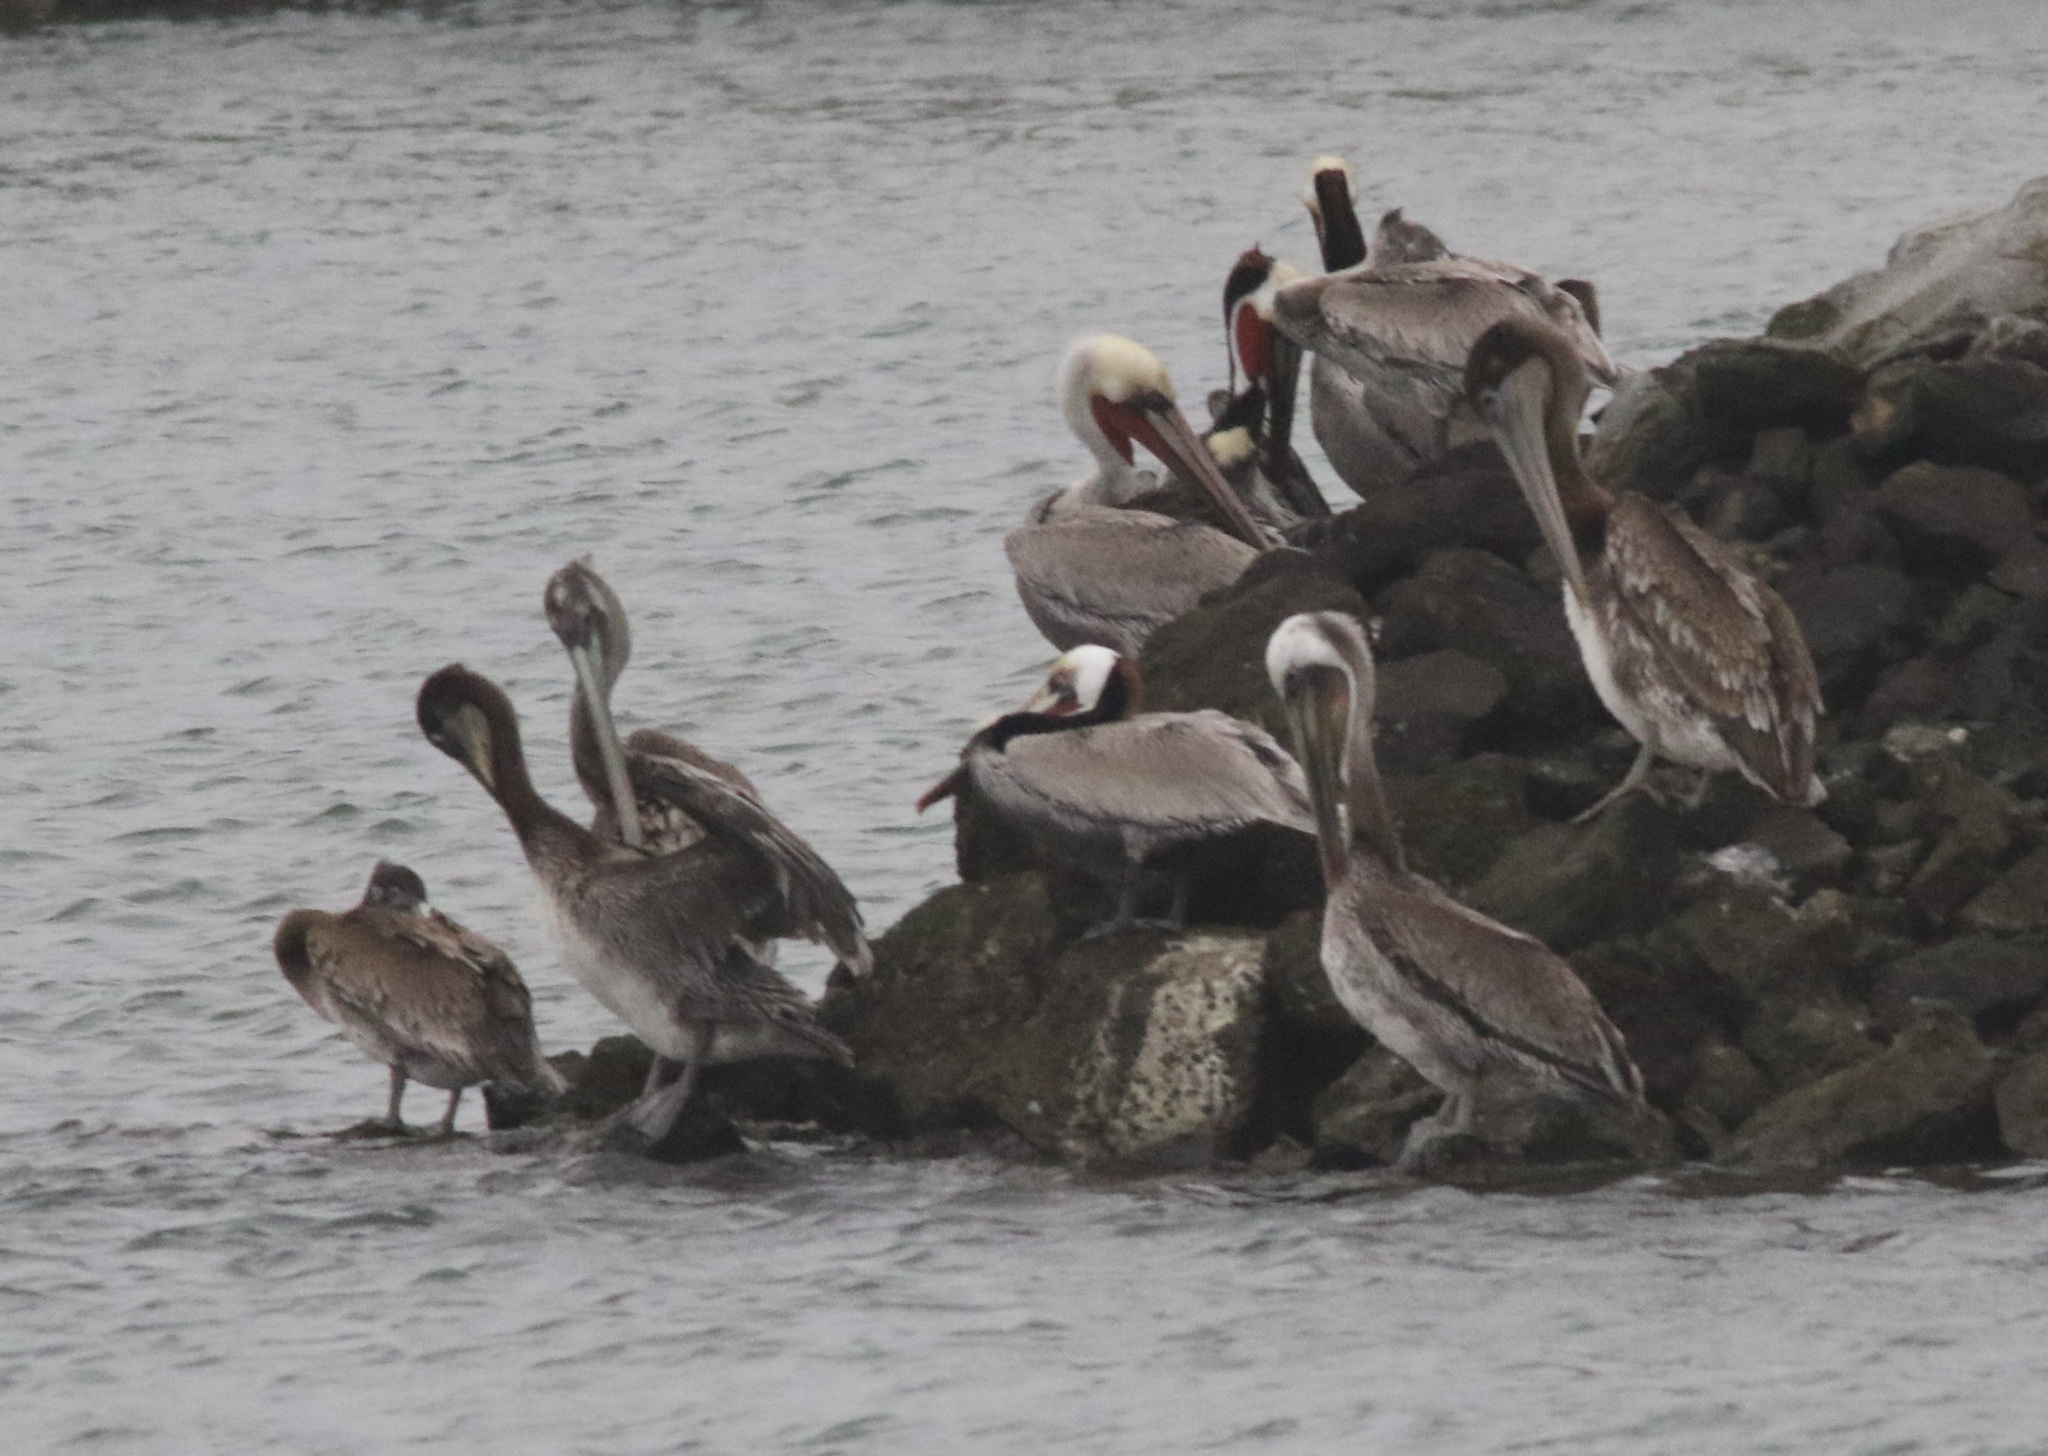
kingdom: Animalia
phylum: Chordata
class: Aves
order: Pelecaniformes
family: Pelecanidae
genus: Pelecanus
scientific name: Pelecanus occidentalis
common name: Brown pelican
